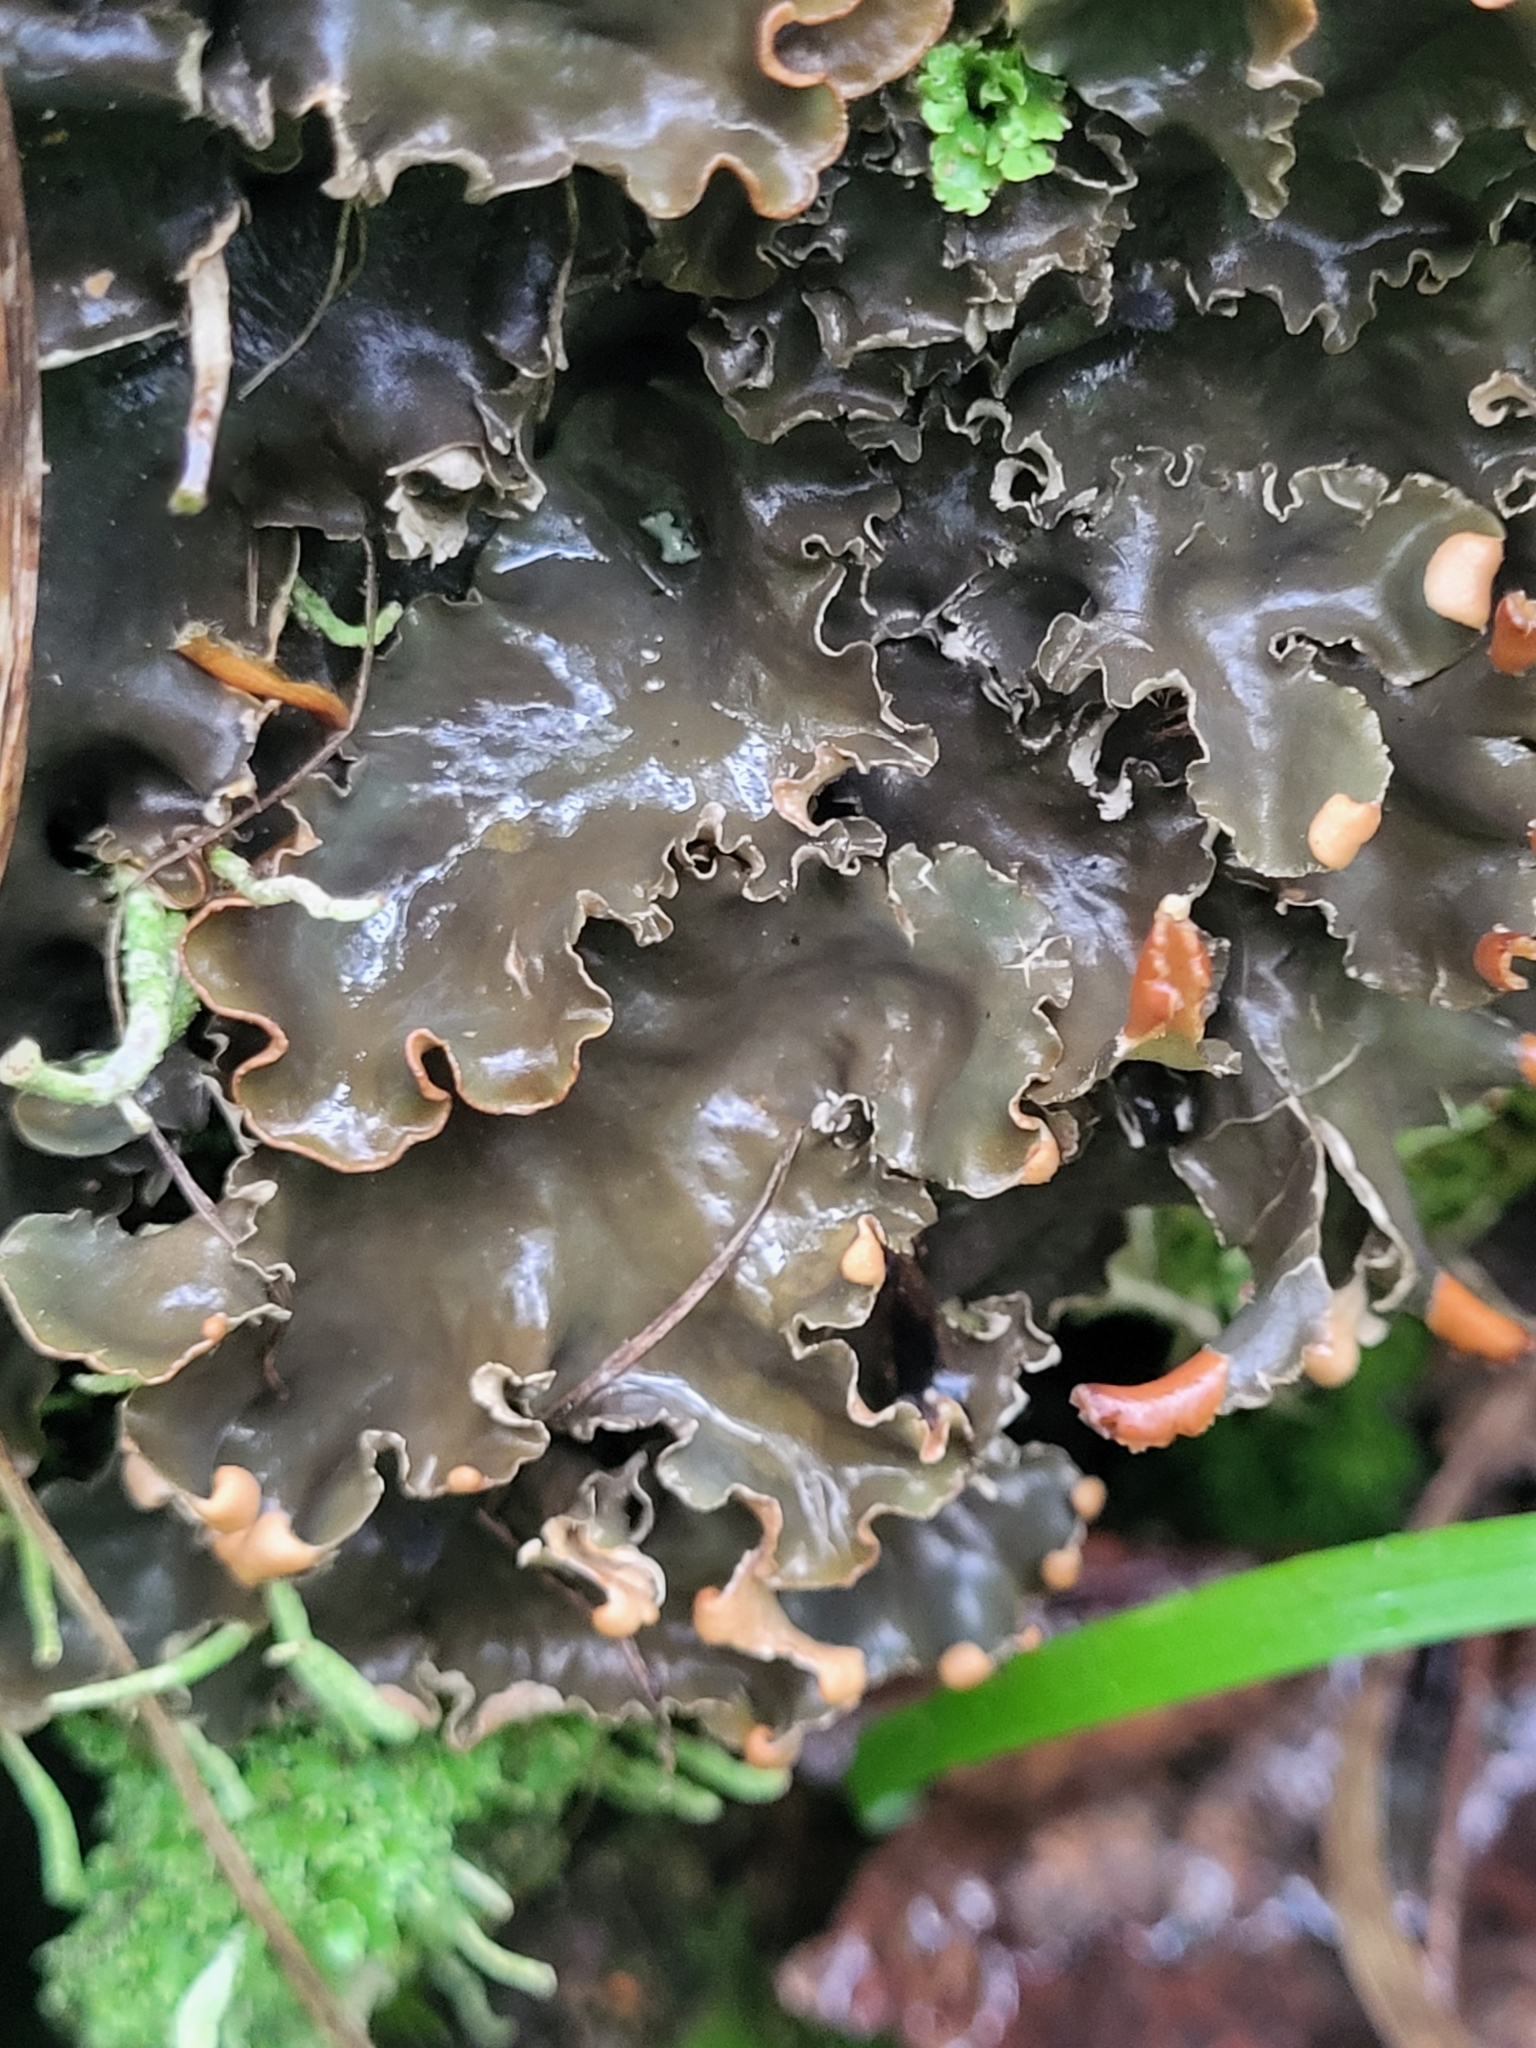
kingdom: Fungi
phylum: Ascomycota
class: Lecanoromycetes
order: Peltigerales
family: Peltigeraceae
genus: Peltigera
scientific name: Peltigera canina
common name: Dog pelt lichen
